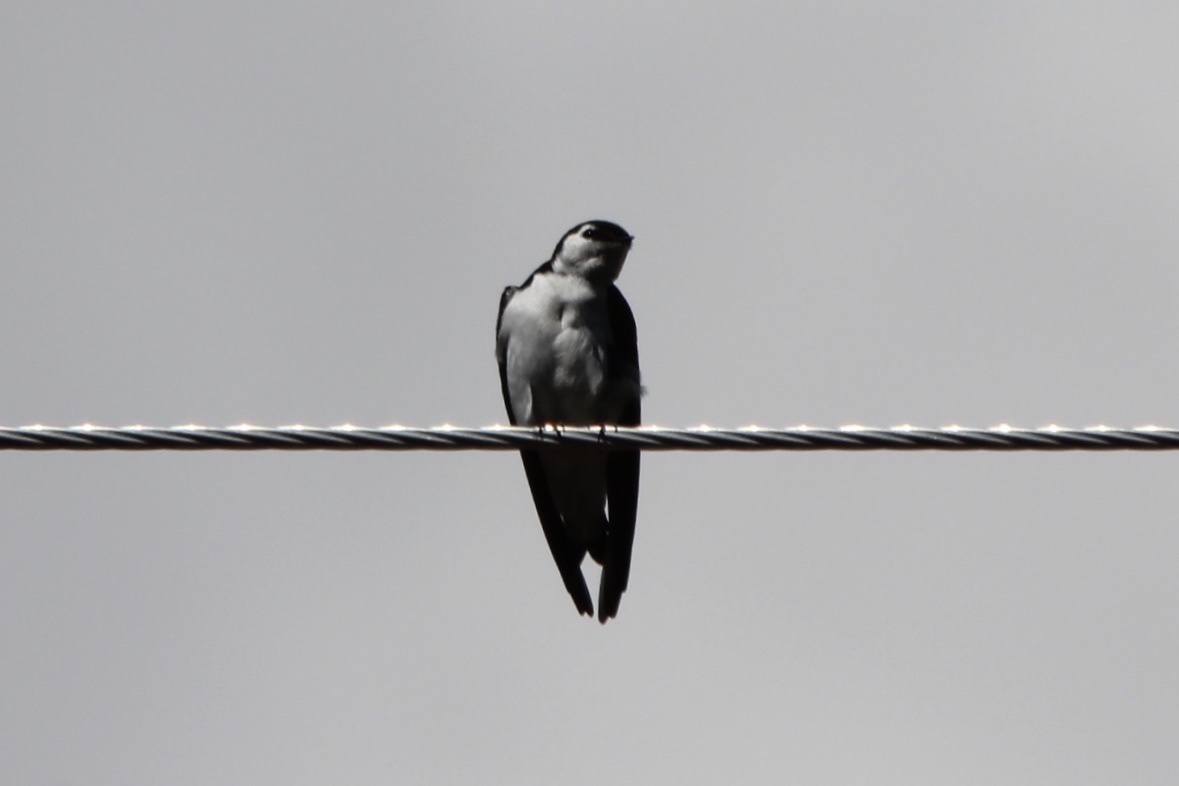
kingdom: Animalia
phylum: Chordata
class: Aves
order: Passeriformes
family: Hirundinidae
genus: Tachycineta
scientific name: Tachycineta thalassina
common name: Violet-green swallow
